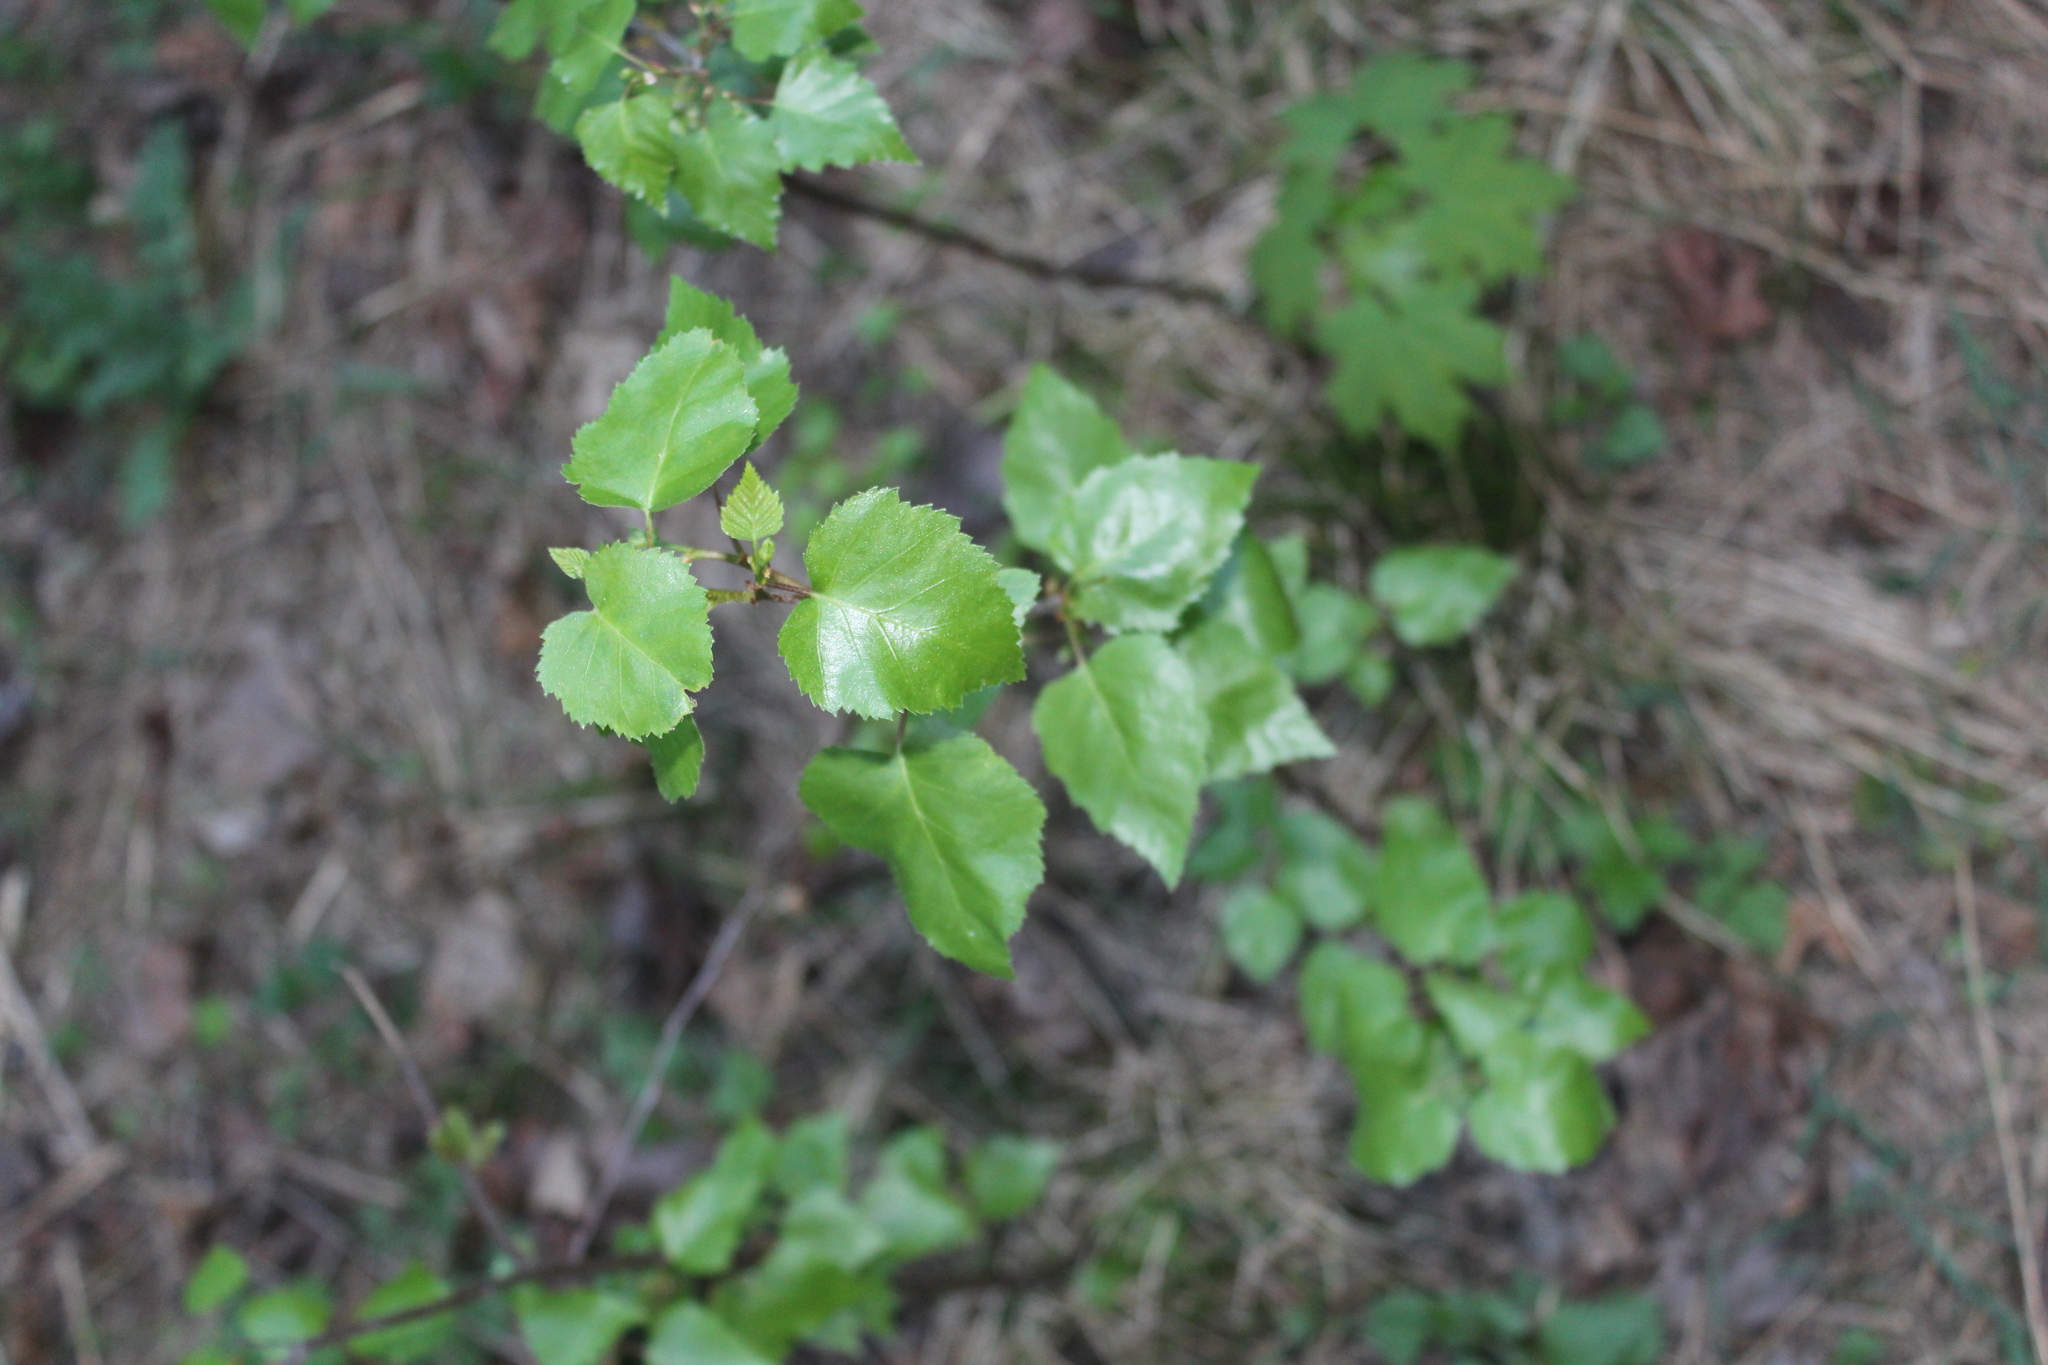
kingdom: Plantae
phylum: Tracheophyta
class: Magnoliopsida
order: Fagales
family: Betulaceae
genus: Betula
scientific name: Betula pubescens
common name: Downy birch
